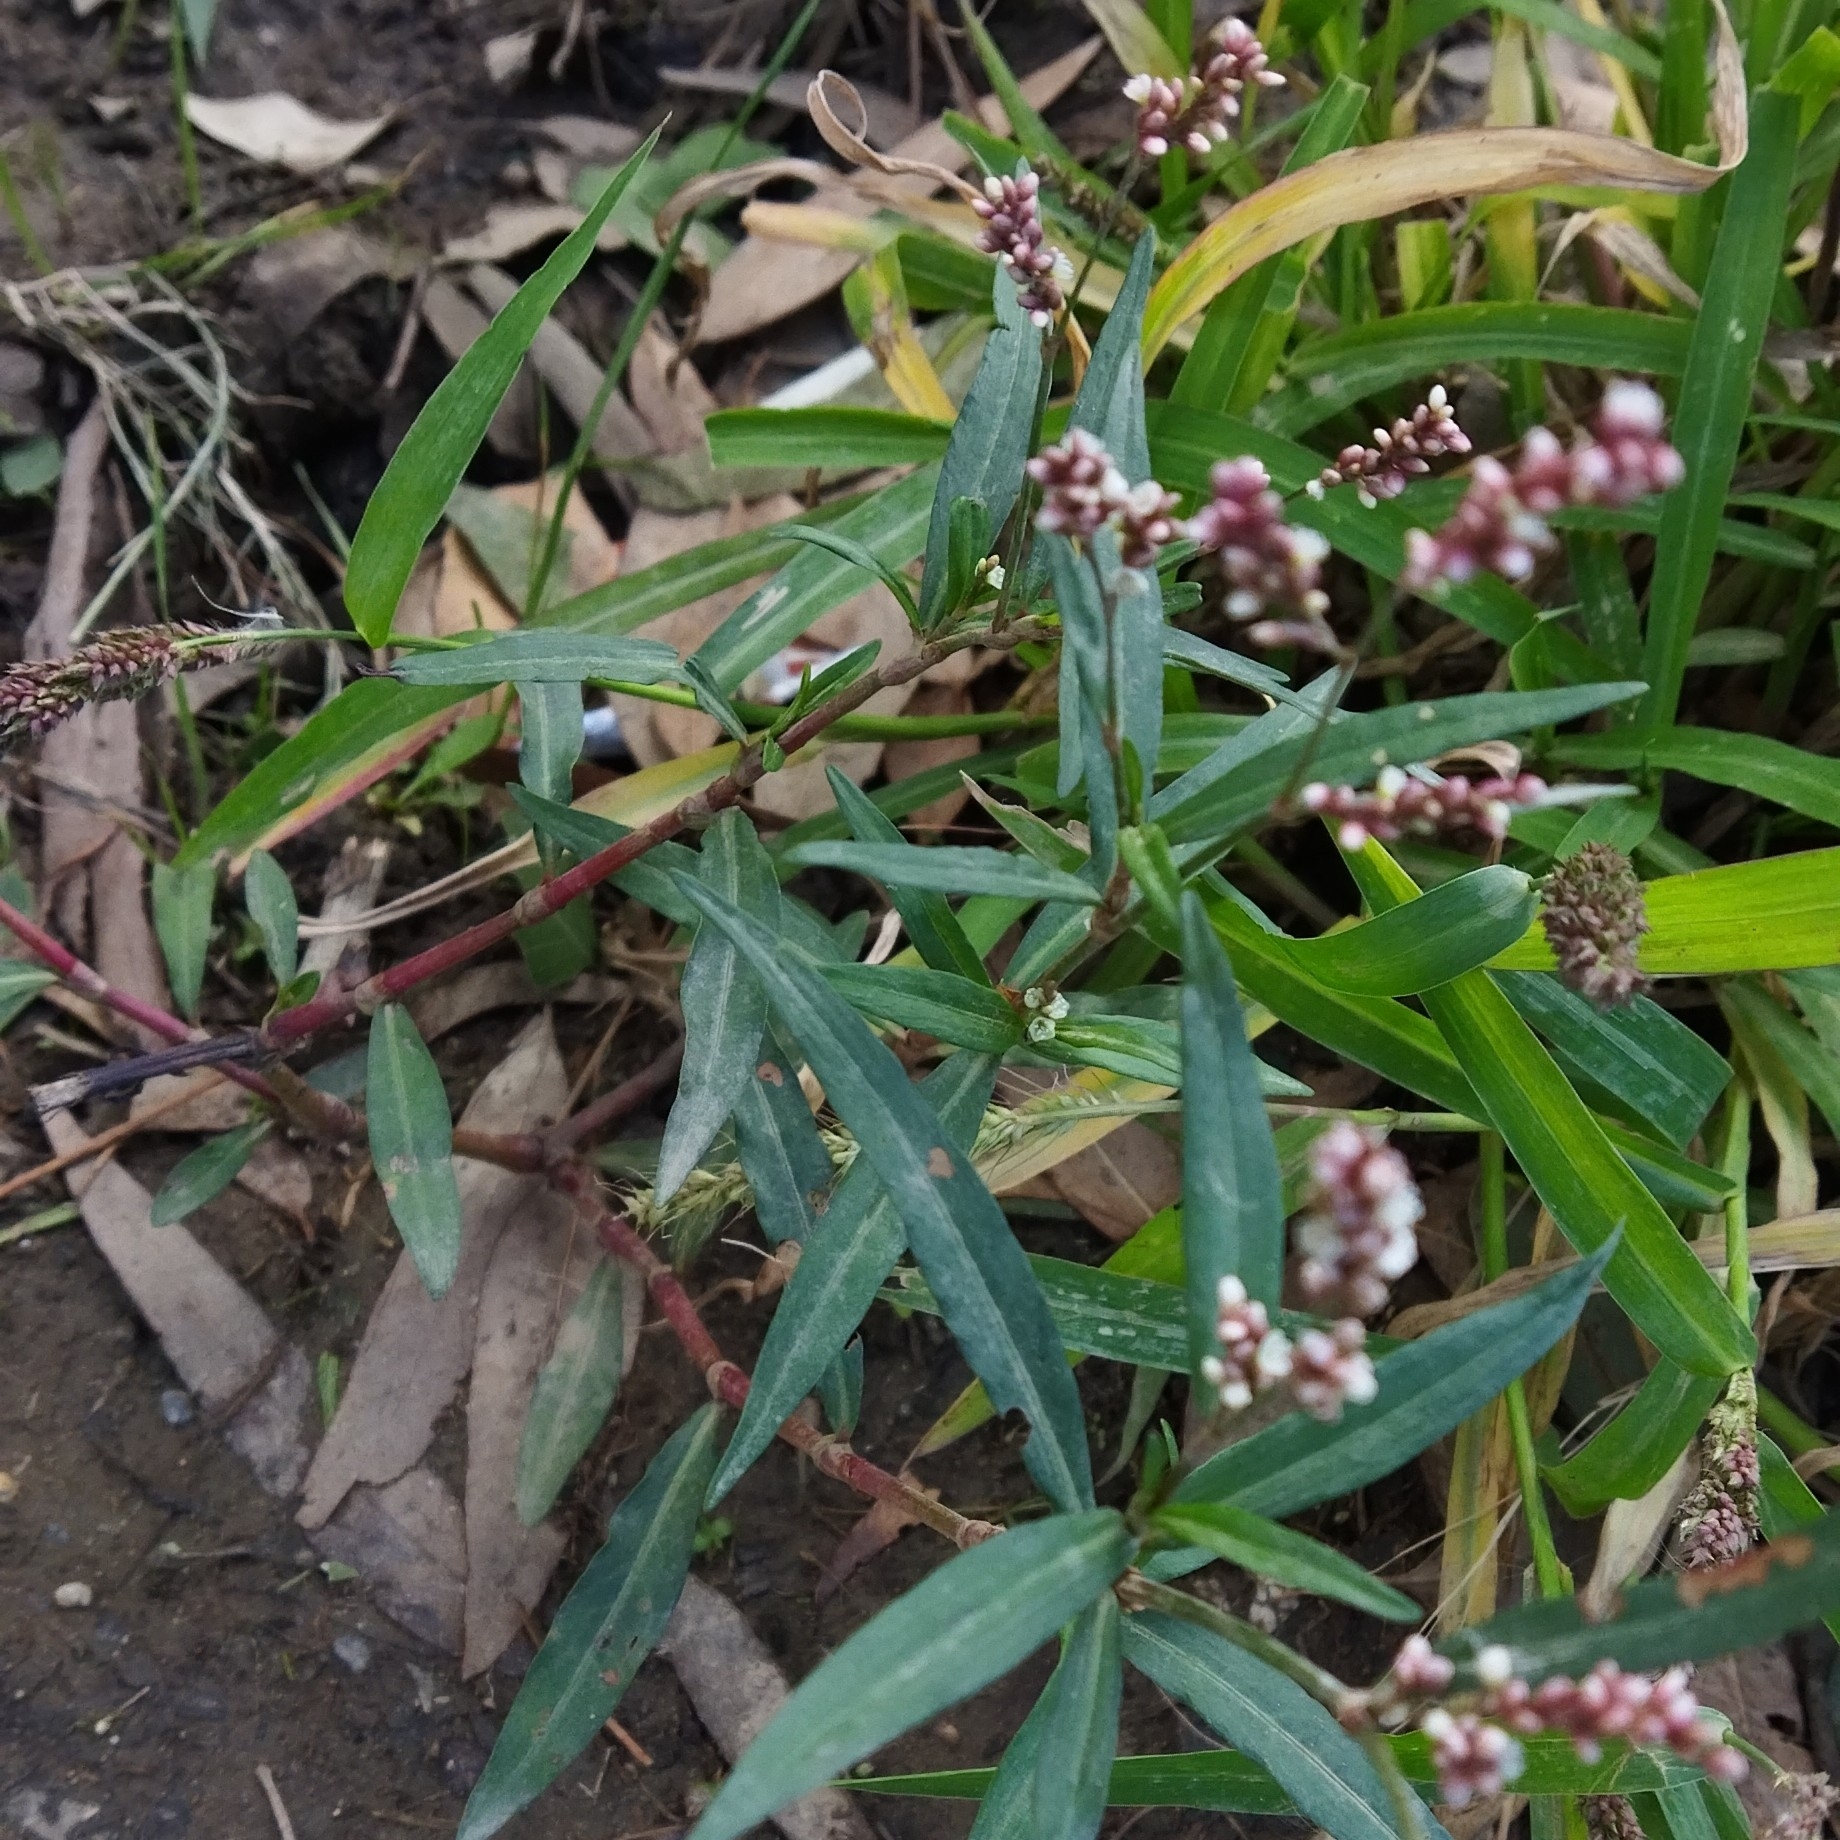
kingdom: Plantae
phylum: Tracheophyta
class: Magnoliopsida
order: Caryophyllales
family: Polygonaceae
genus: Persicaria
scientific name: Persicaria glabra
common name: Denseflower knotweed
